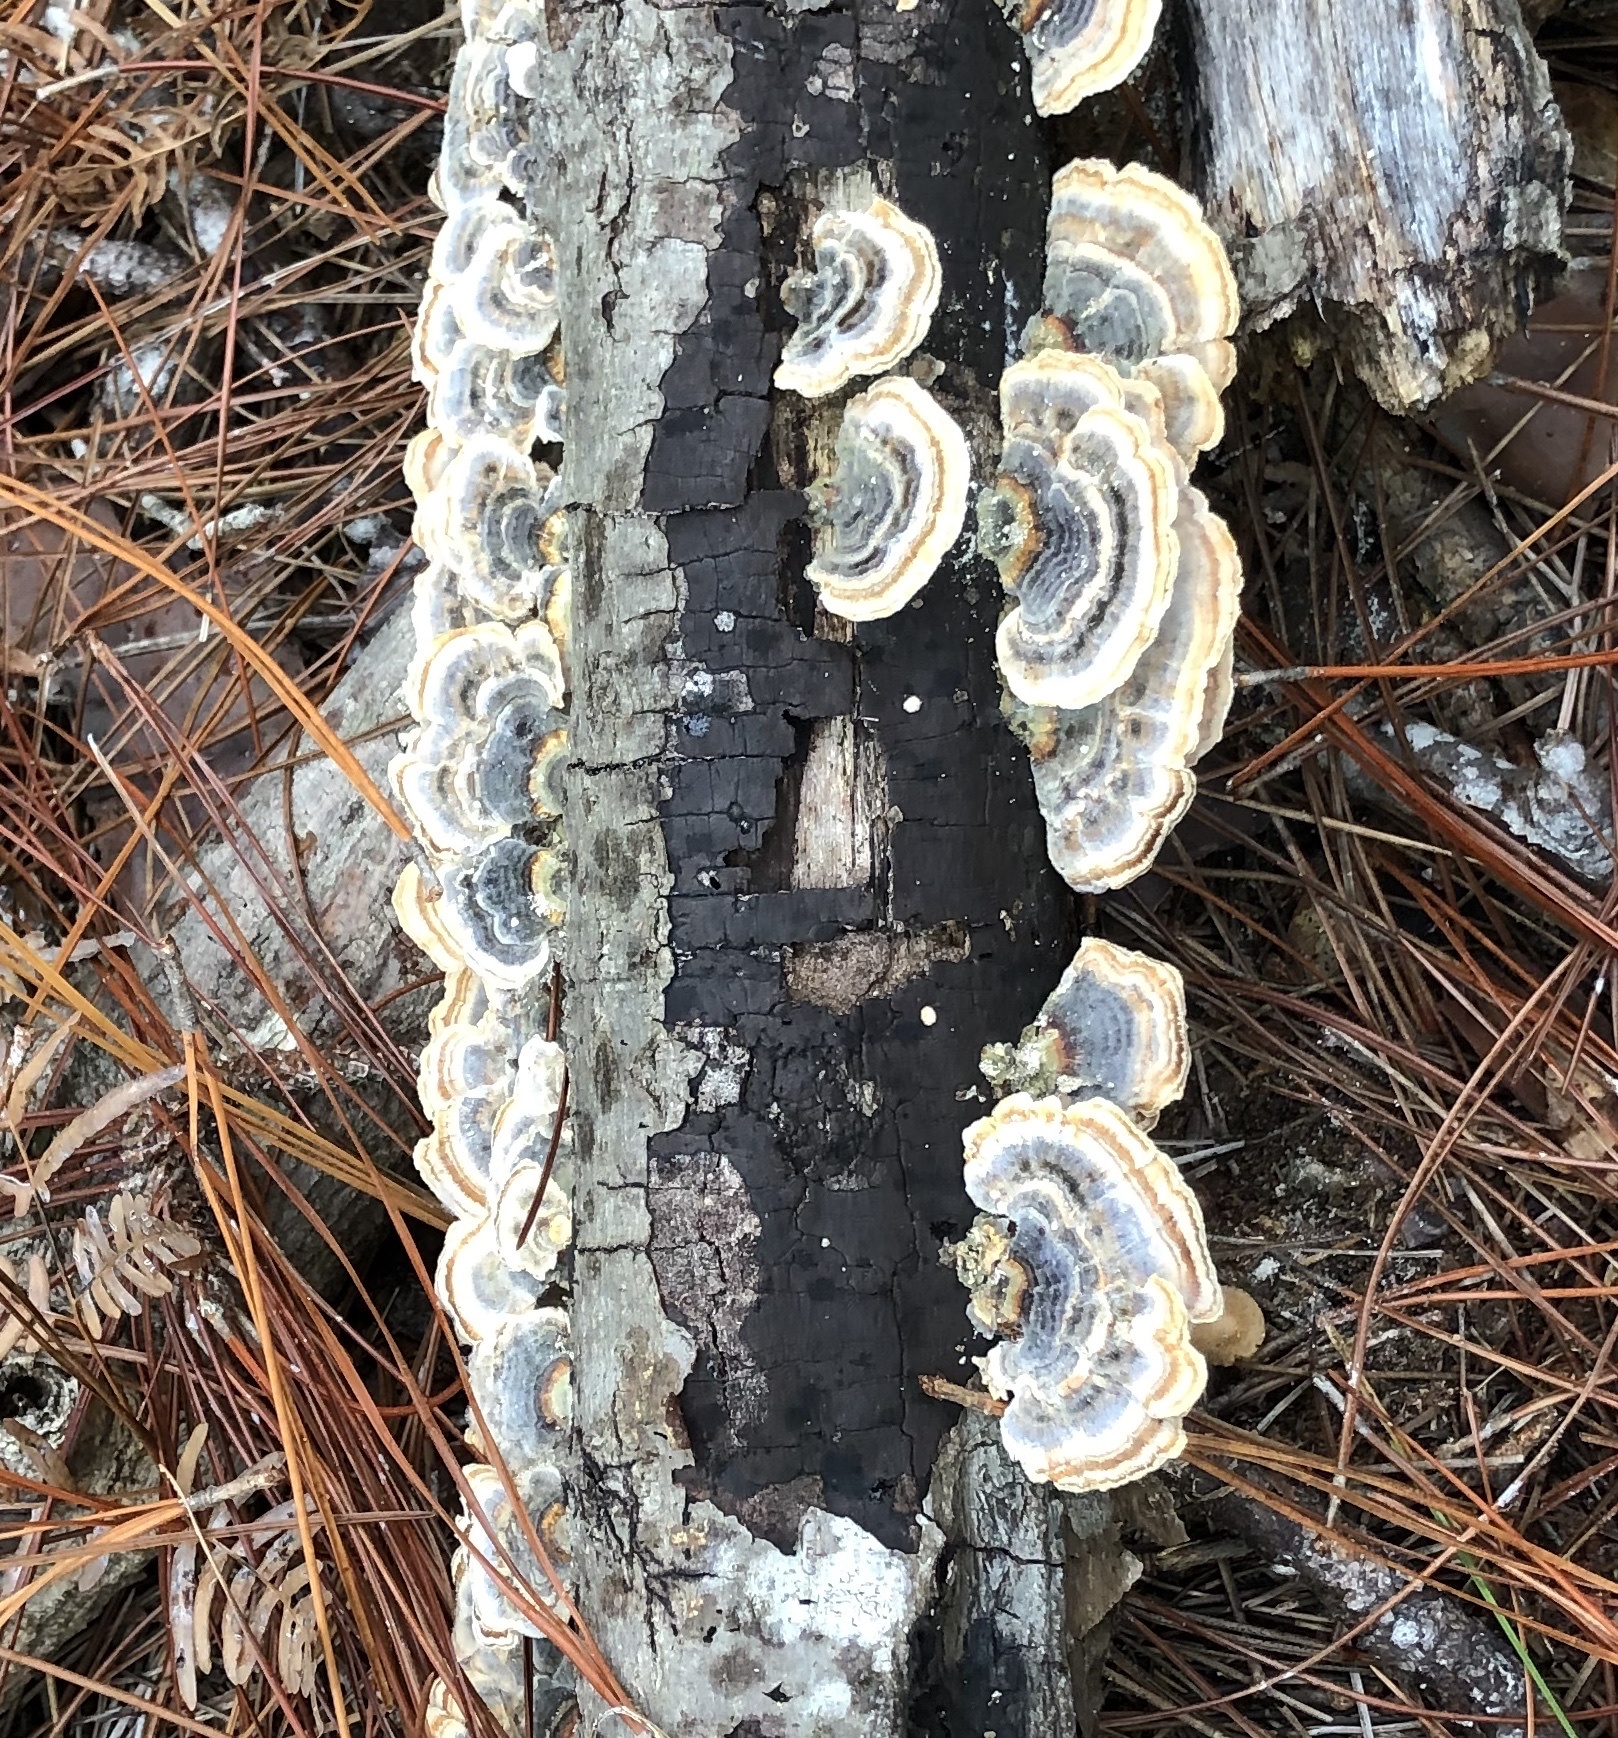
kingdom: Fungi
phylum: Basidiomycota
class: Agaricomycetes
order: Polyporales
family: Polyporaceae
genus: Trametes
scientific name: Trametes versicolor
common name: Turkeytail
